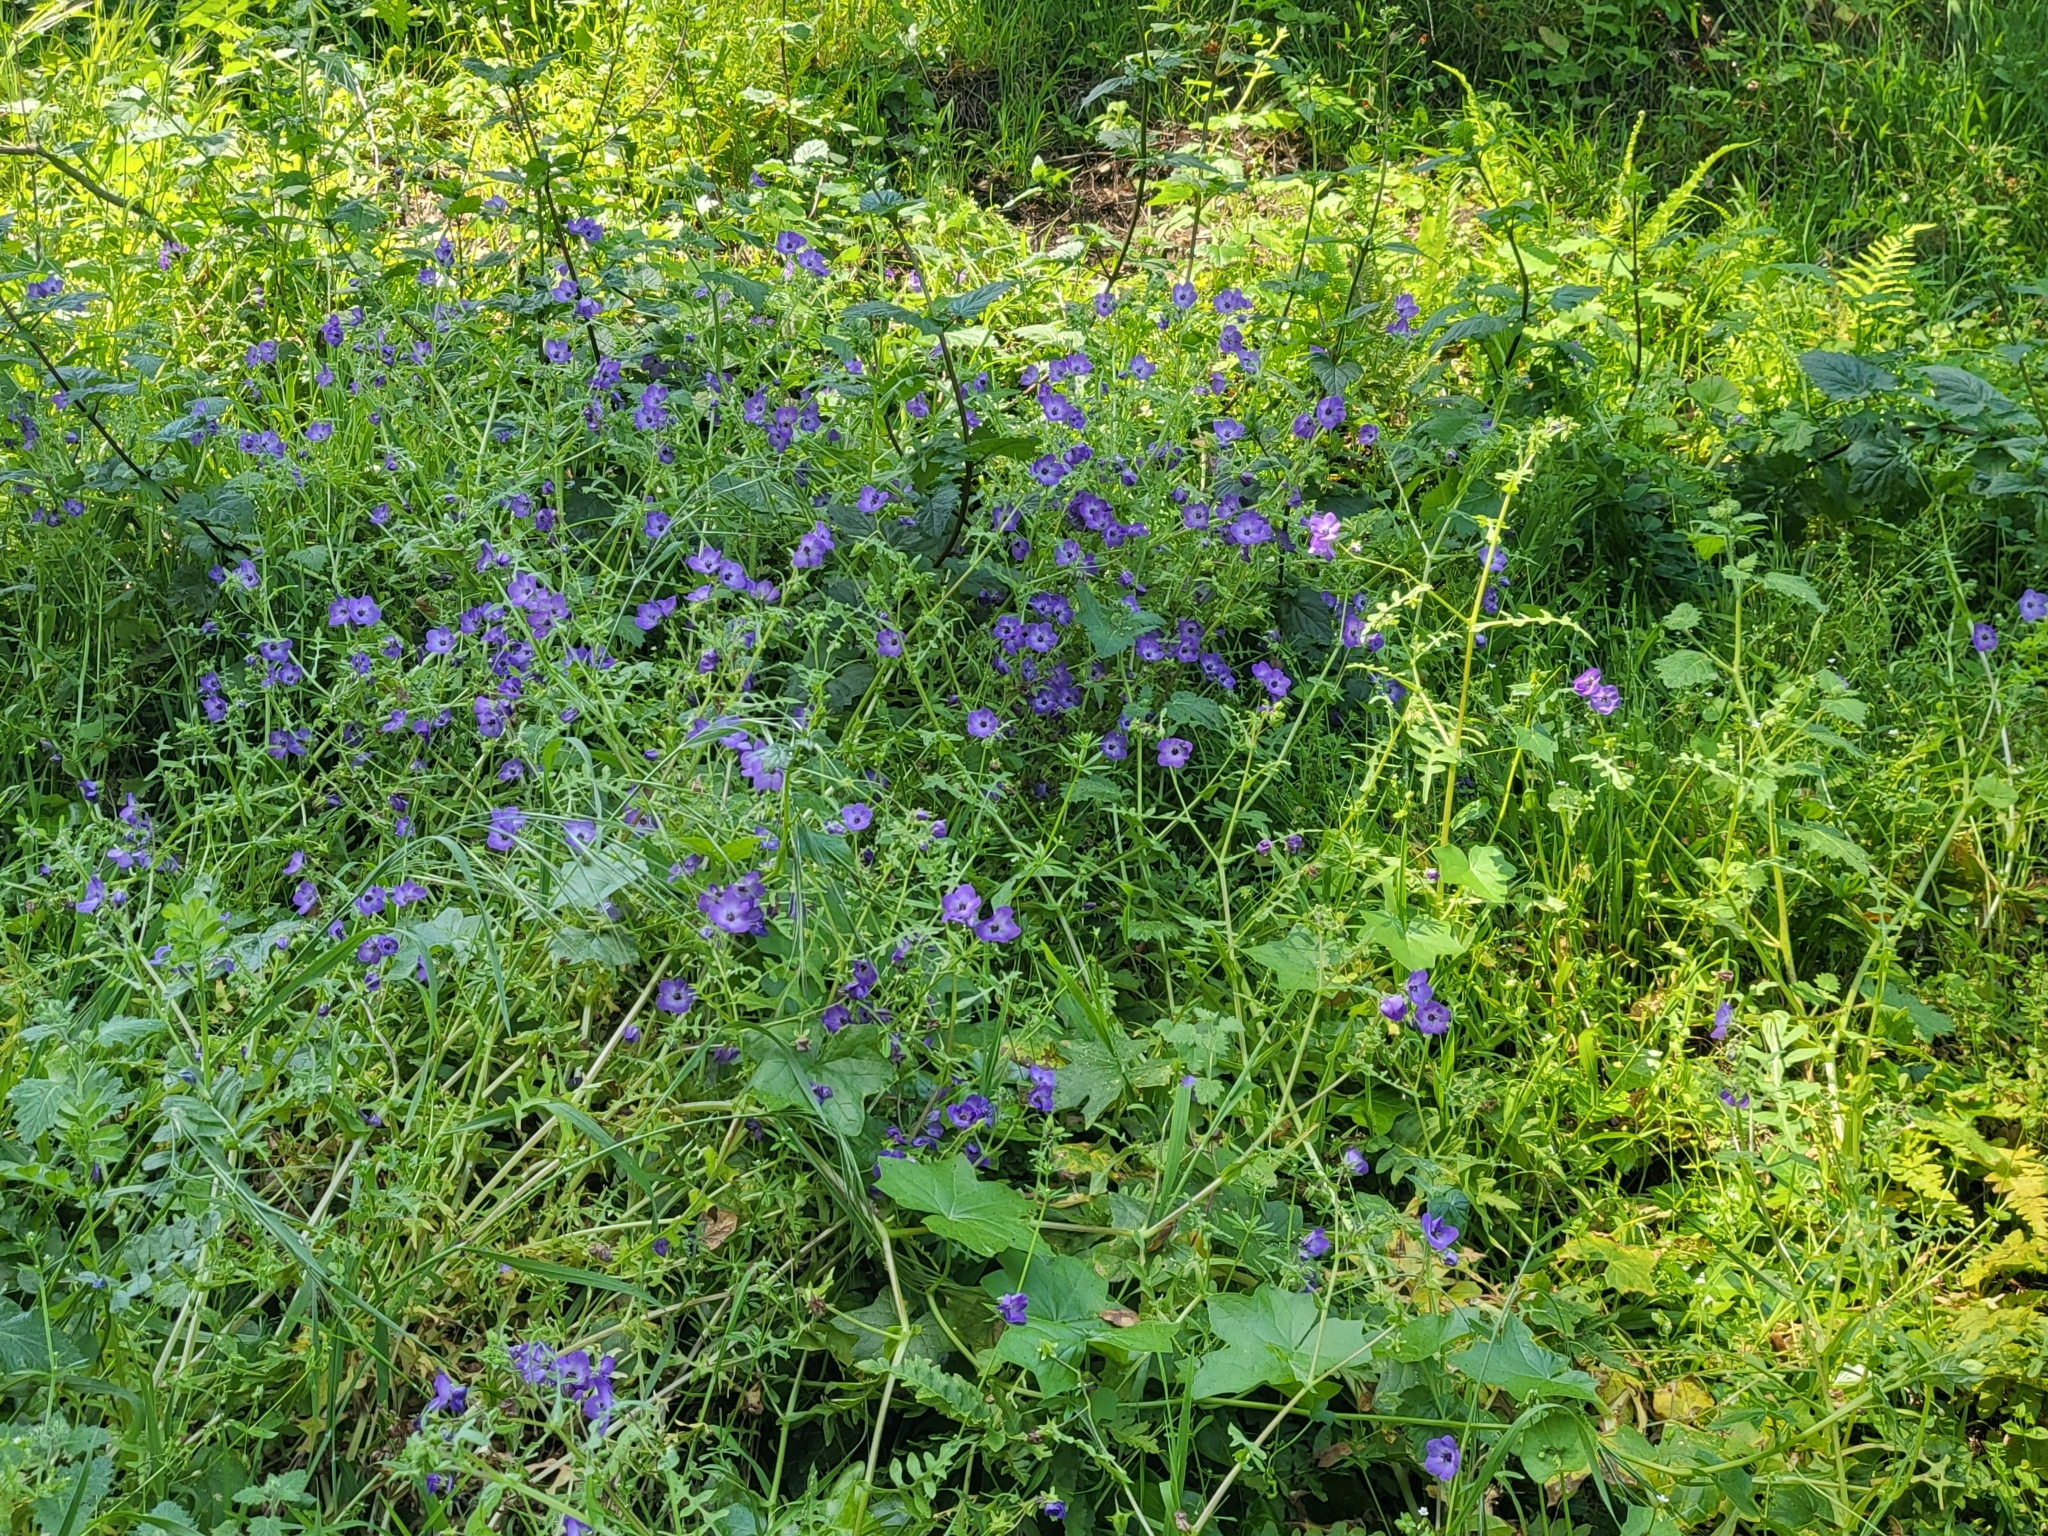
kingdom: Plantae
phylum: Tracheophyta
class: Magnoliopsida
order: Boraginales
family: Hydrophyllaceae
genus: Pholistoma
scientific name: Pholistoma auritum
